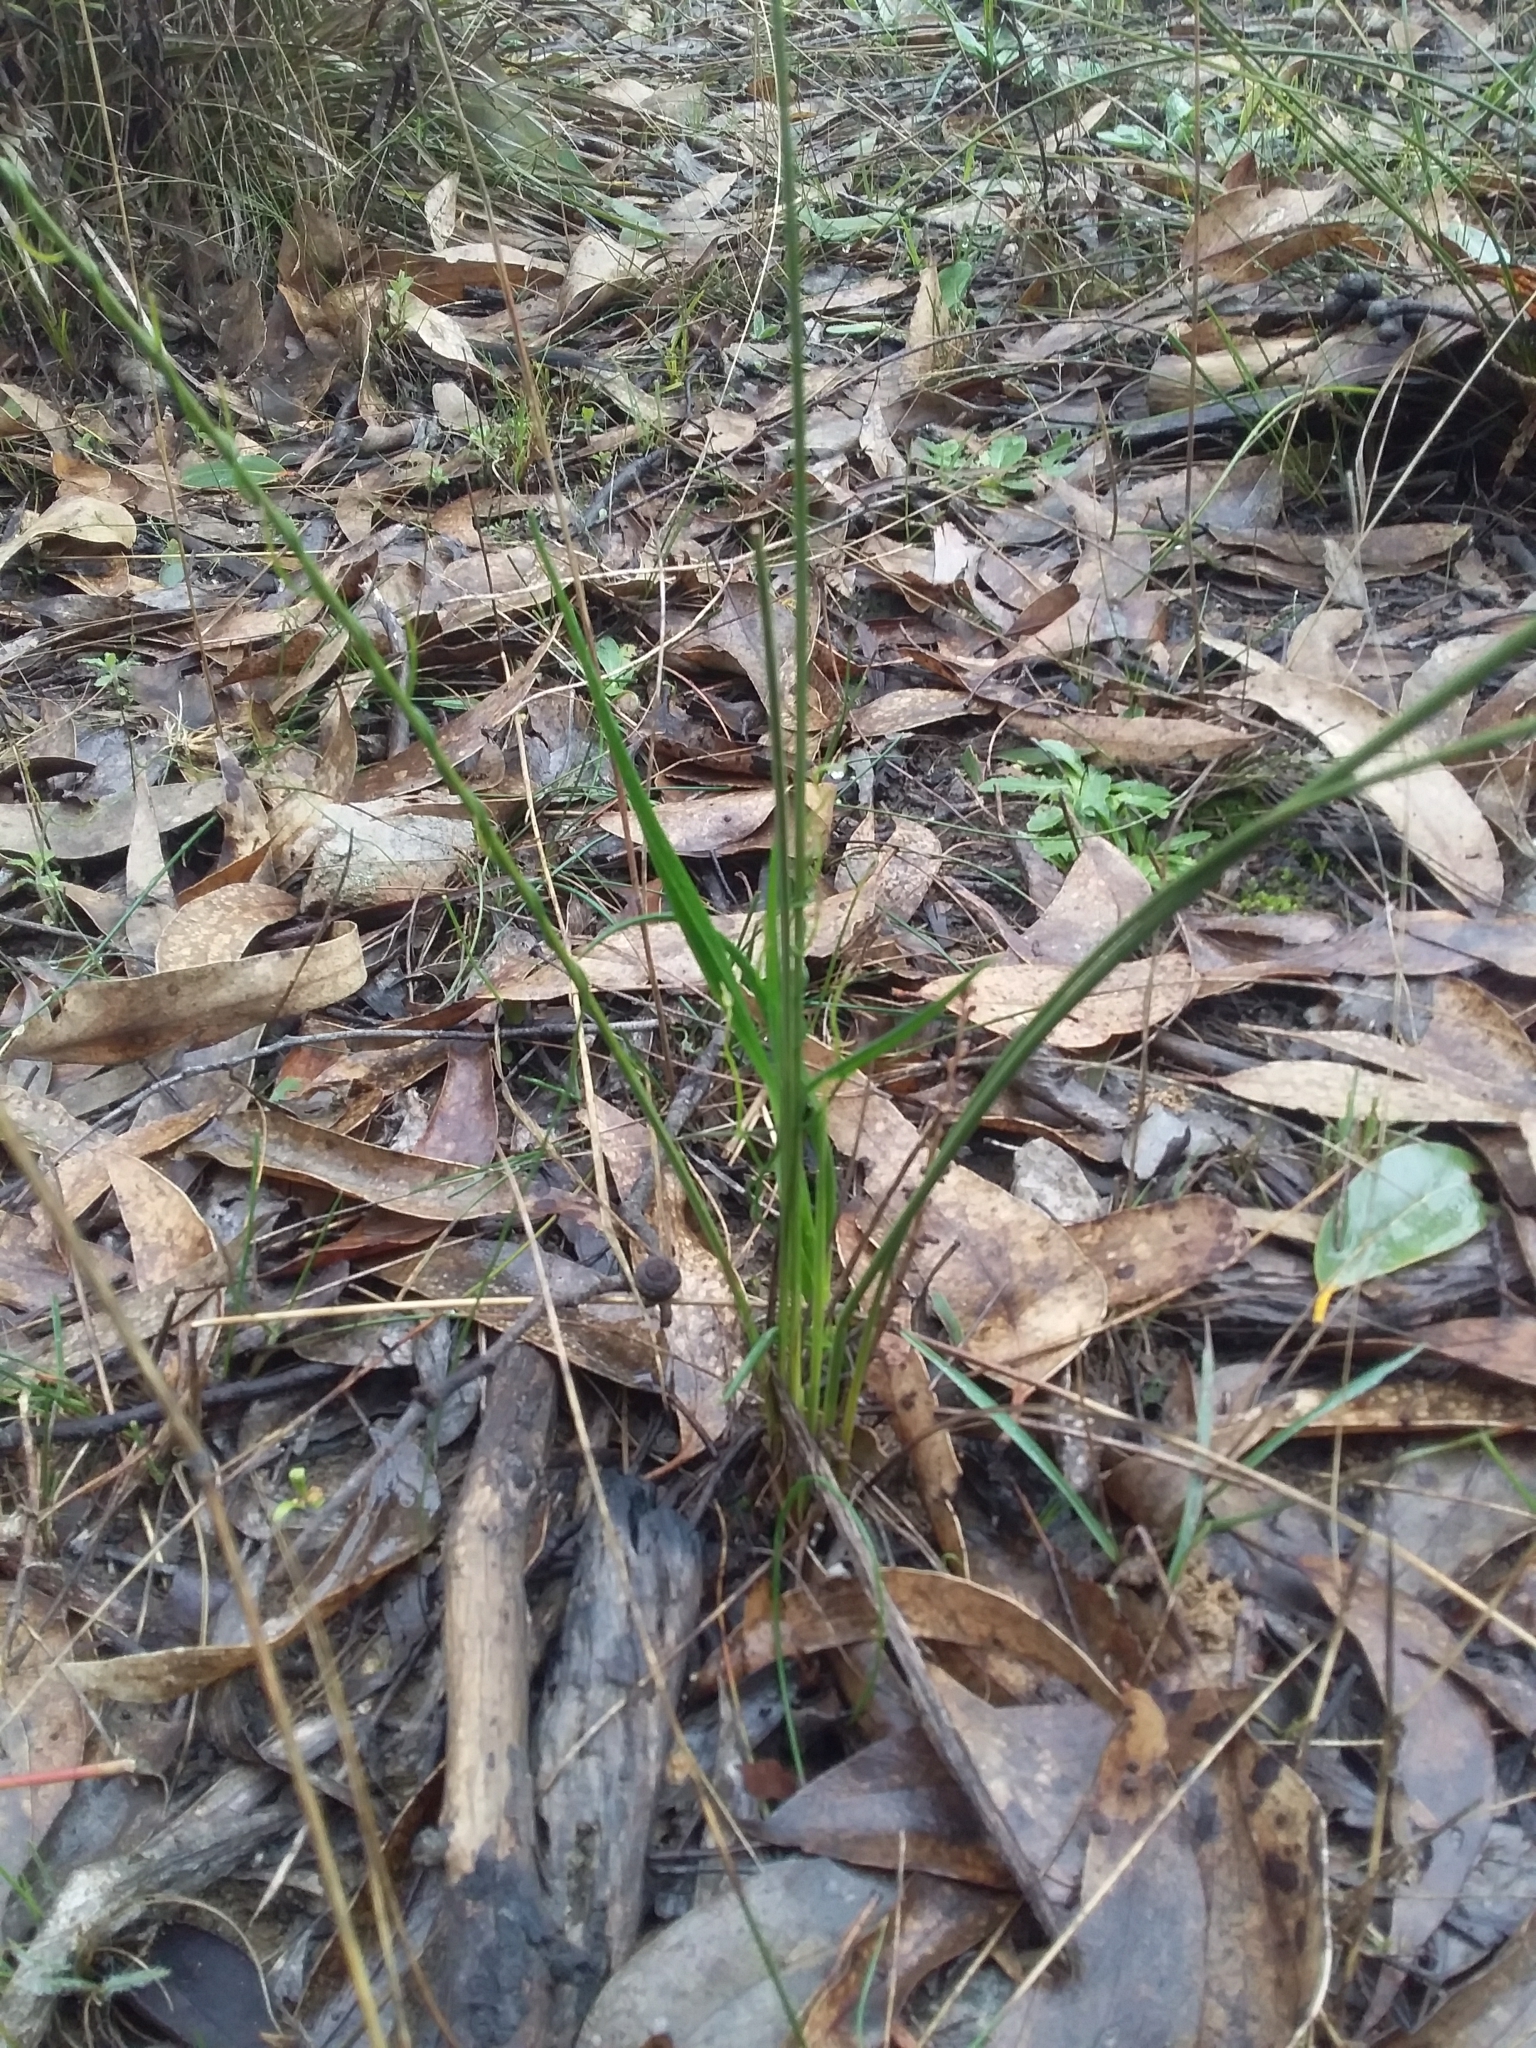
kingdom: Plantae
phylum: Tracheophyta
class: Liliopsida
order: Asparagales
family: Asparagaceae
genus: Lomandra
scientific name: Lomandra micrantha
